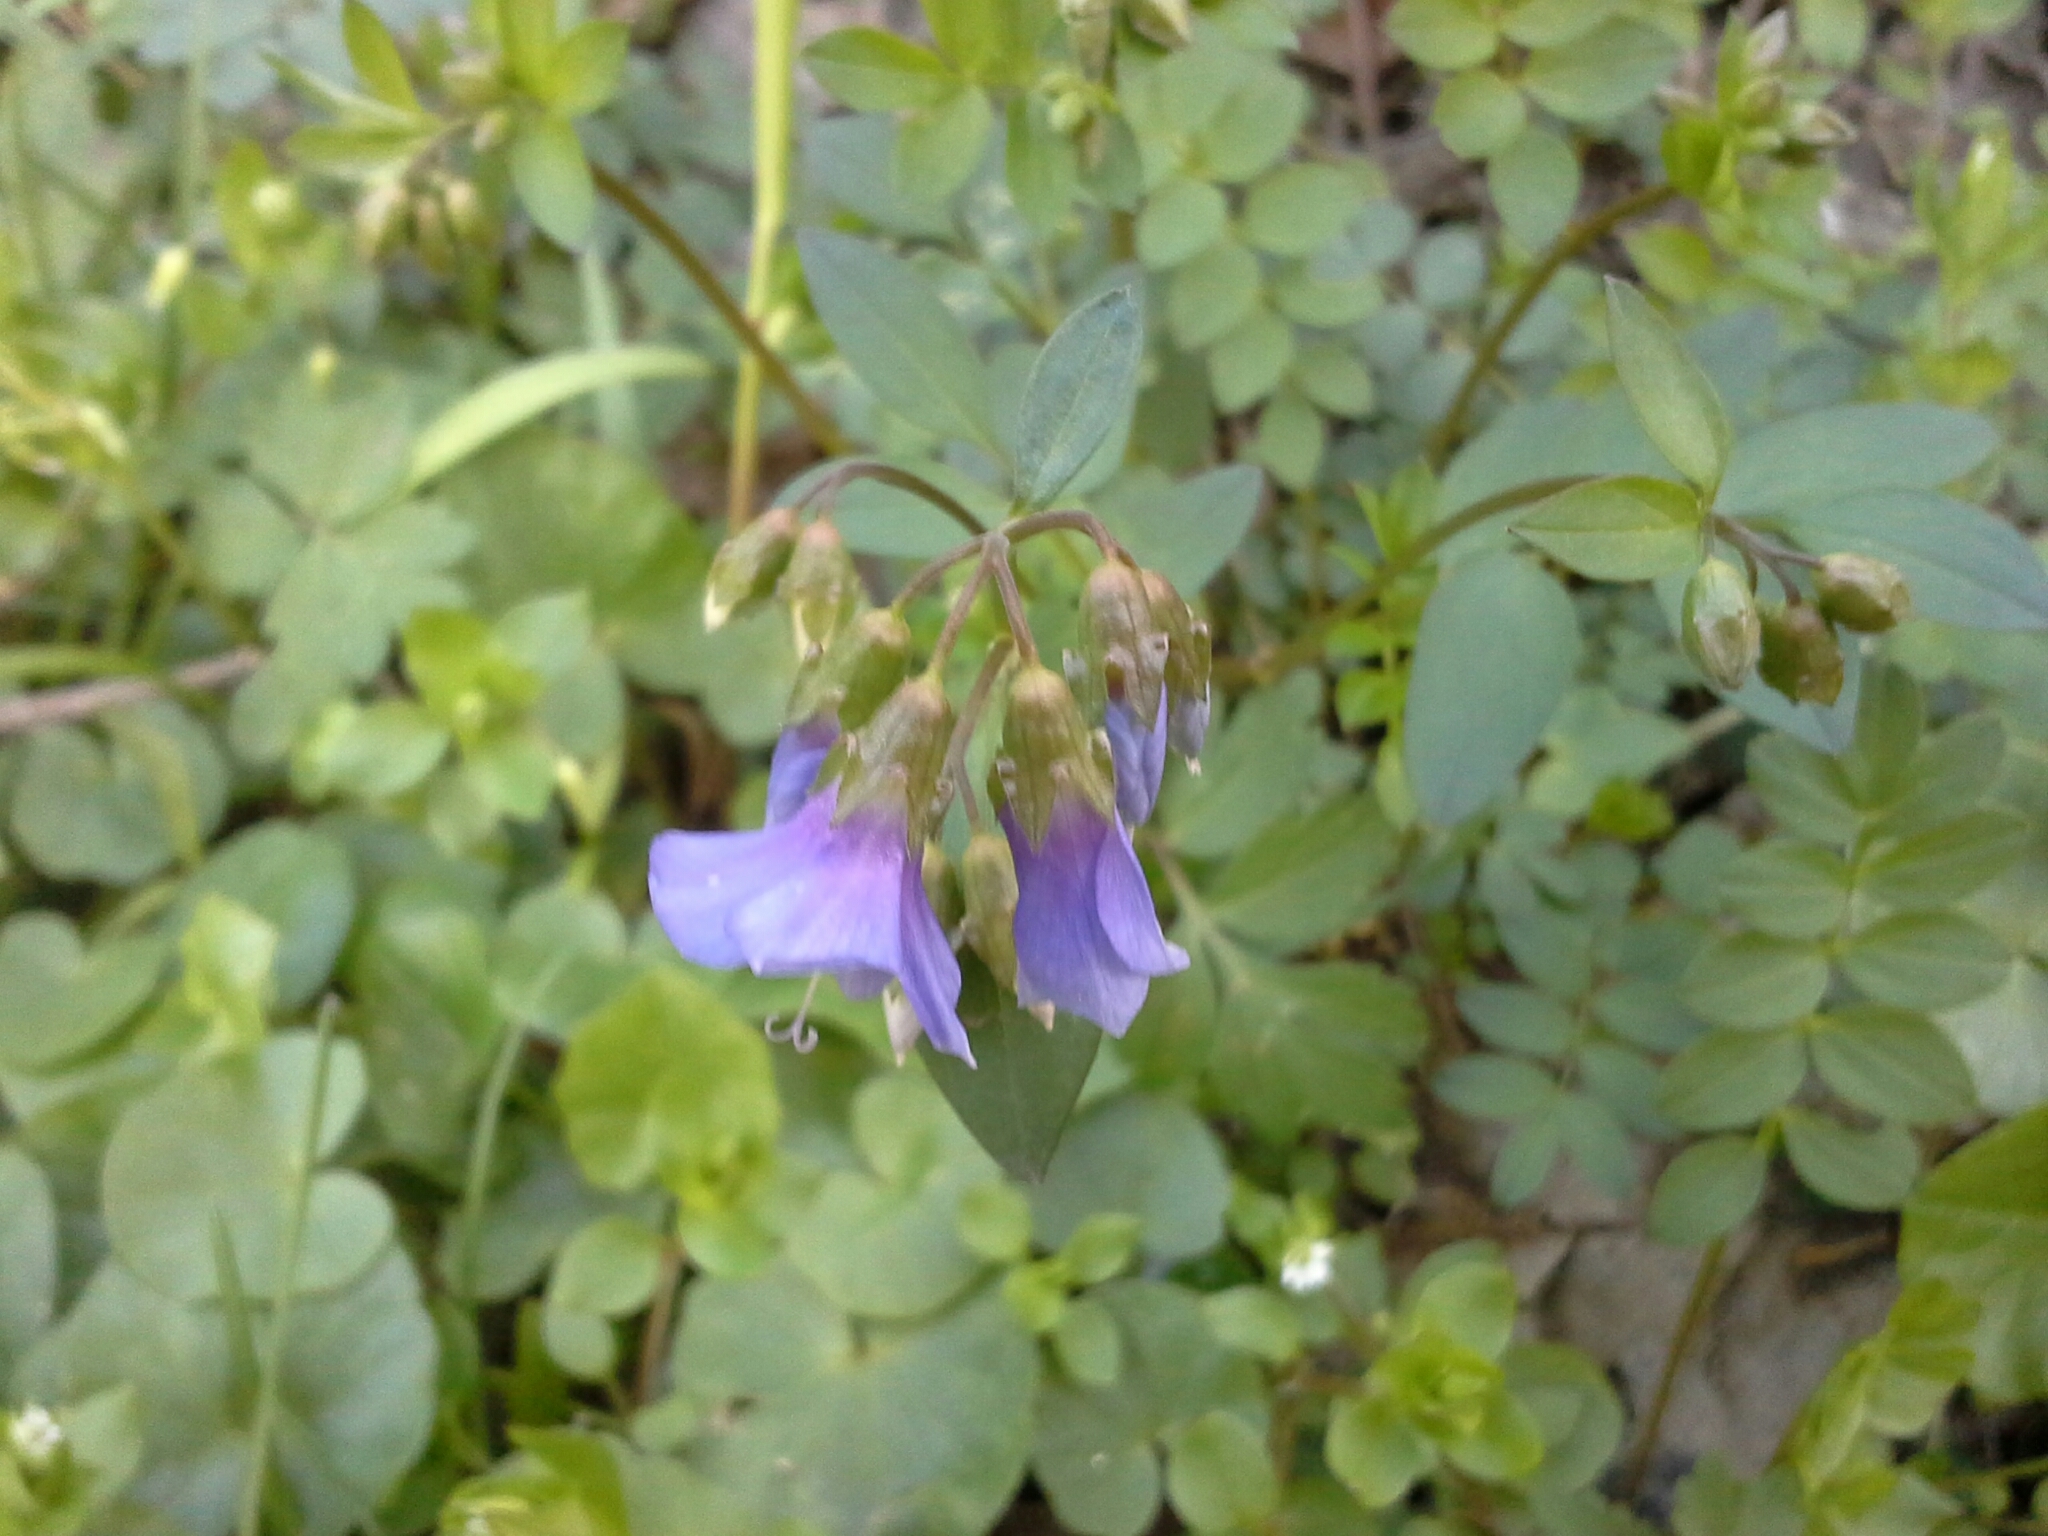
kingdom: Plantae
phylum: Tracheophyta
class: Magnoliopsida
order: Ericales
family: Polemoniaceae
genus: Polemonium
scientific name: Polemonium reptans
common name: Creeping jacob's-ladder
